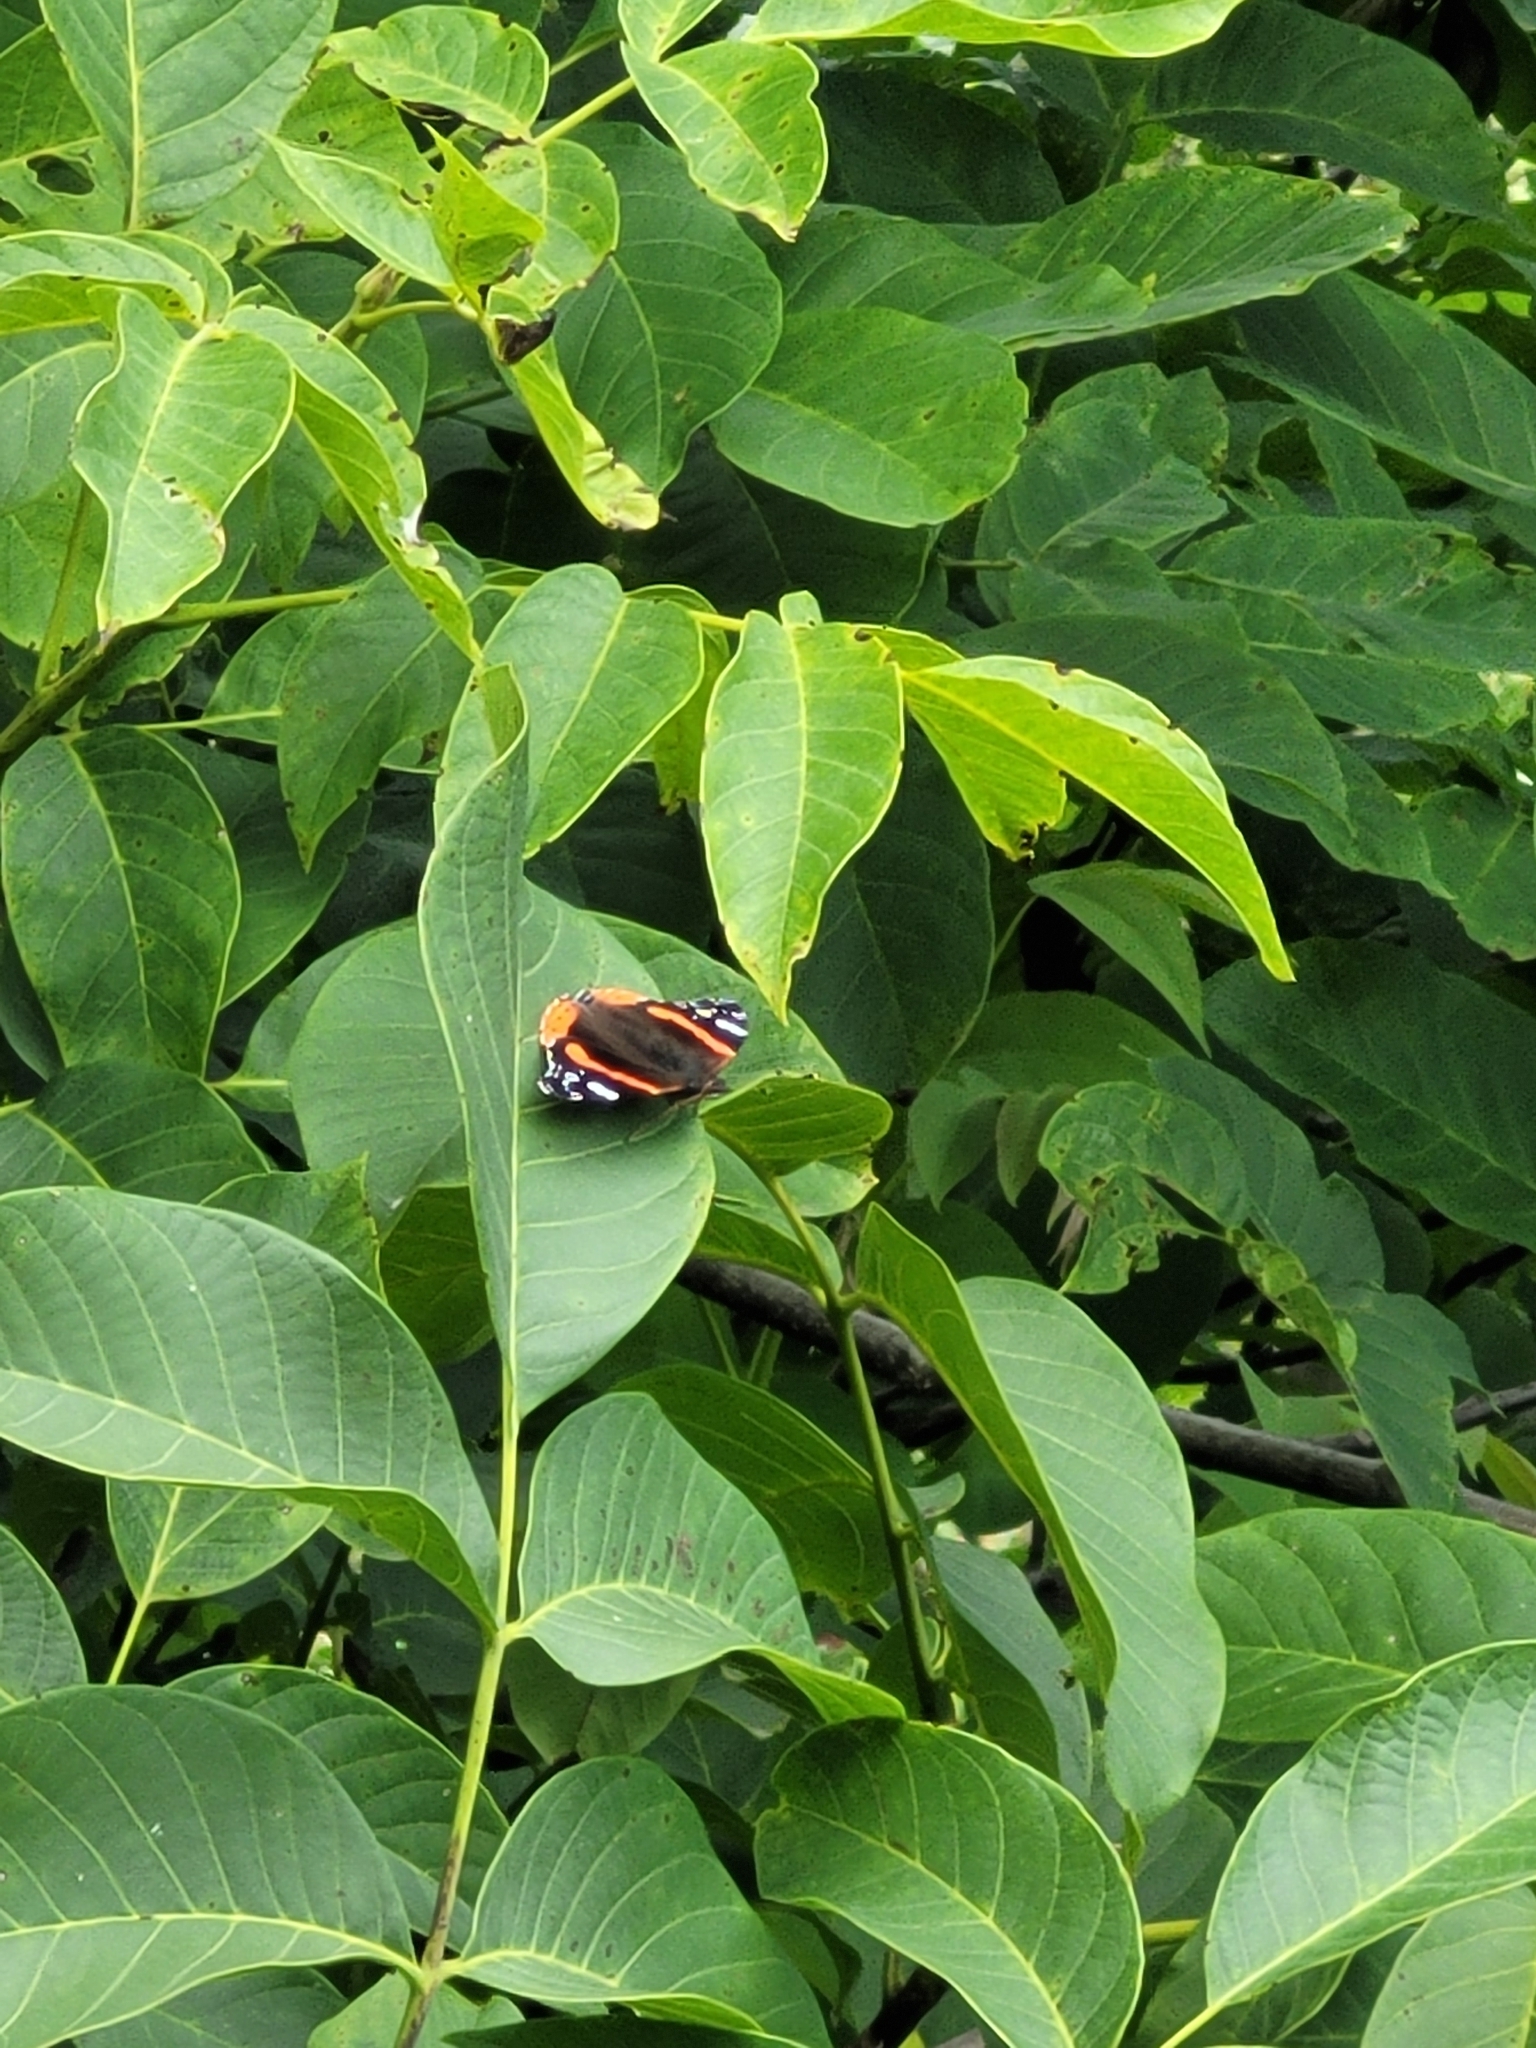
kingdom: Animalia
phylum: Arthropoda
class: Insecta
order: Lepidoptera
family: Nymphalidae
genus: Vanessa
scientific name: Vanessa atalanta
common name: Red admiral
